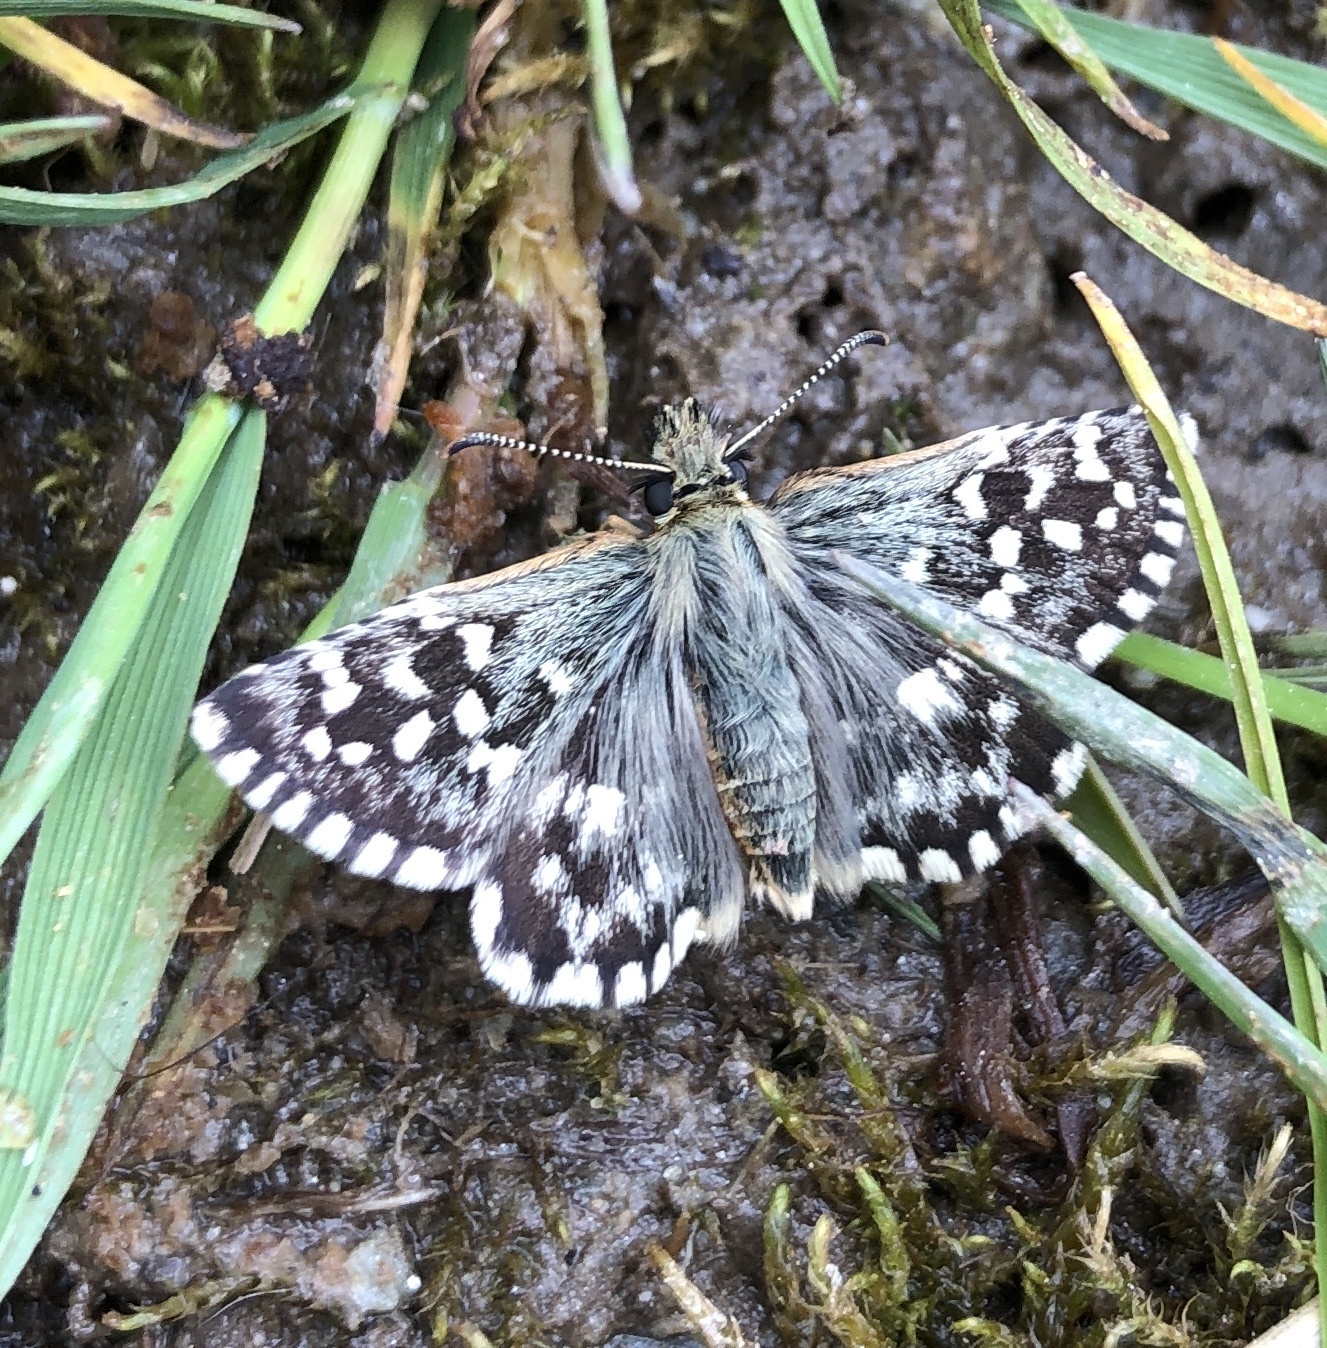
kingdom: Animalia
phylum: Arthropoda
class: Insecta
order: Lepidoptera
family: Hesperiidae
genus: Pyrgus
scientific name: Pyrgus malvoides
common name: Southern grizzled skipper
